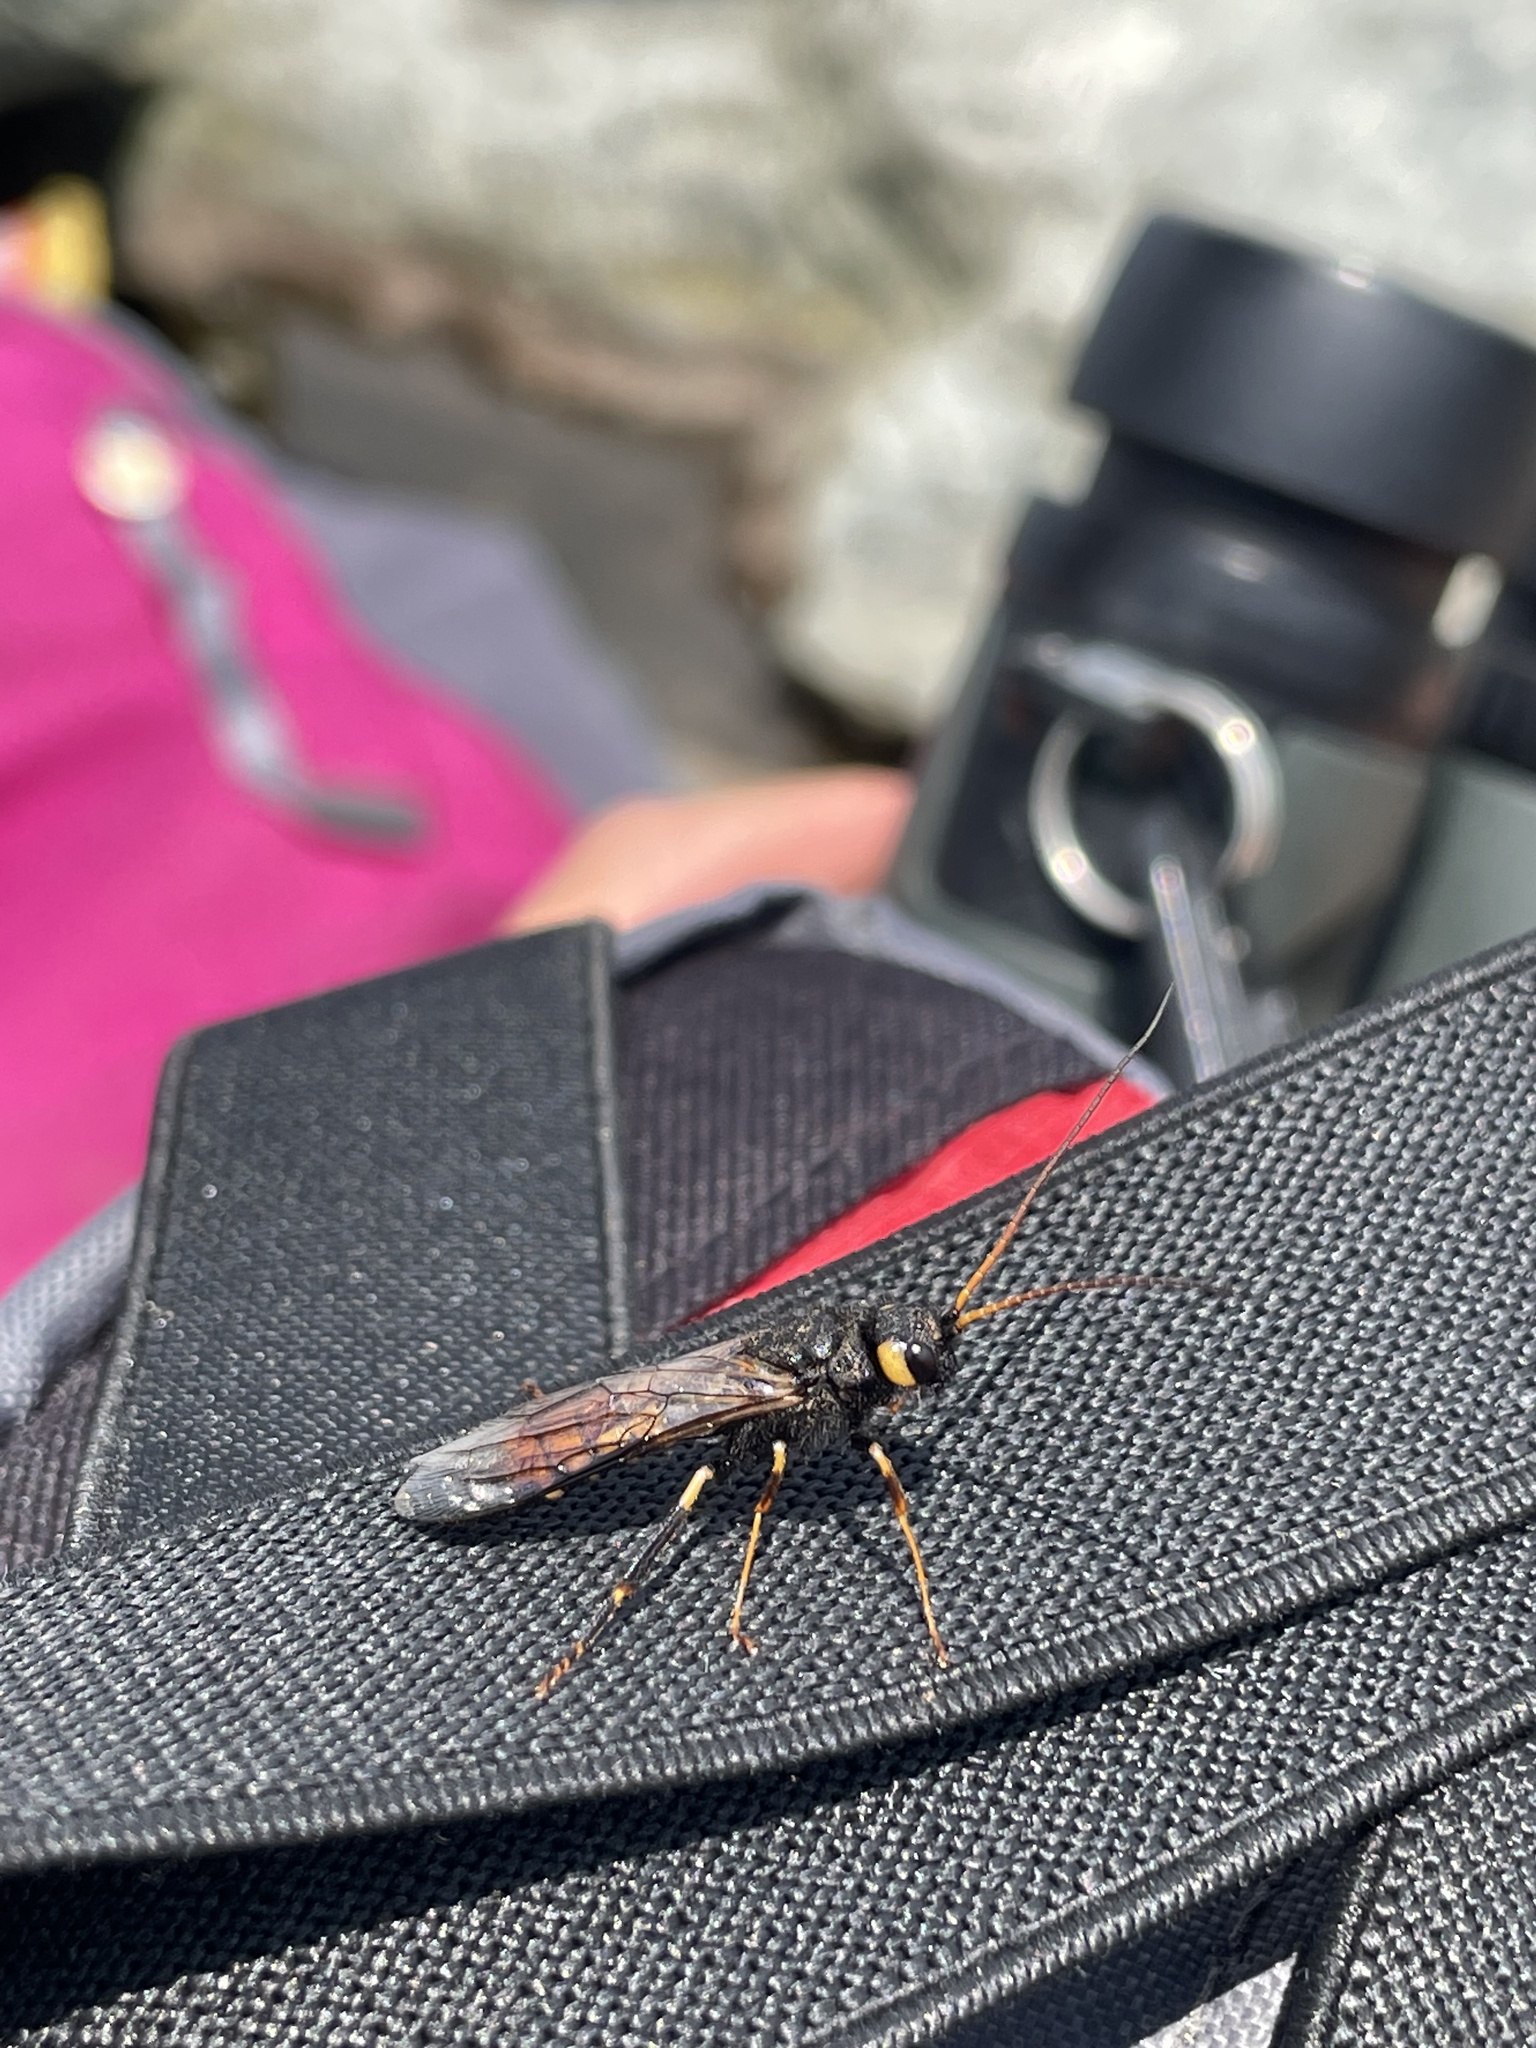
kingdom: Animalia
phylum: Arthropoda
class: Insecta
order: Hymenoptera
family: Siricidae
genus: Urocerus
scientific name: Urocerus flavicornis
